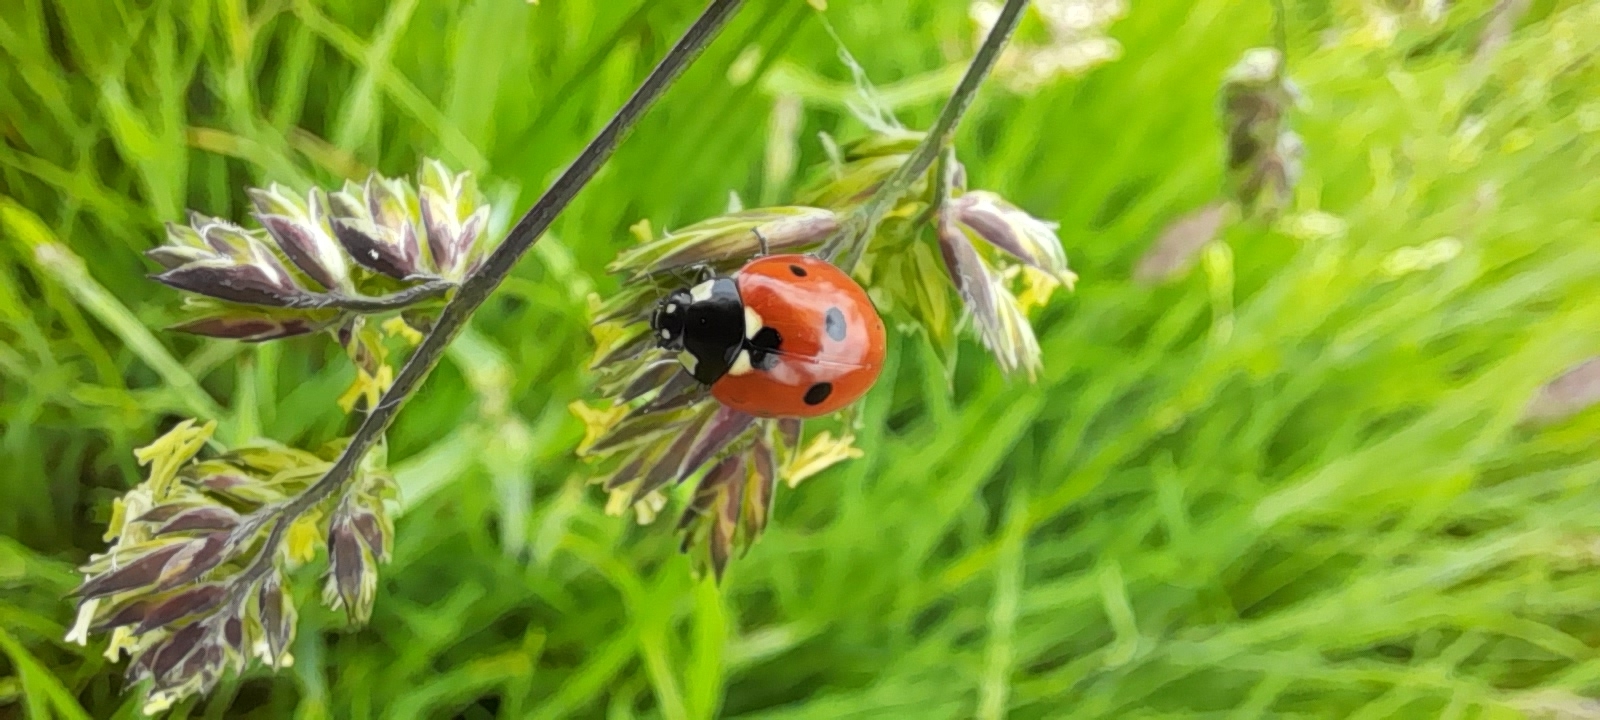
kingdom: Animalia
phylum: Arthropoda
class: Insecta
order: Coleoptera
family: Coccinellidae
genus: Coccinella
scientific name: Coccinella septempunctata
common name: Sevenspotted lady beetle
